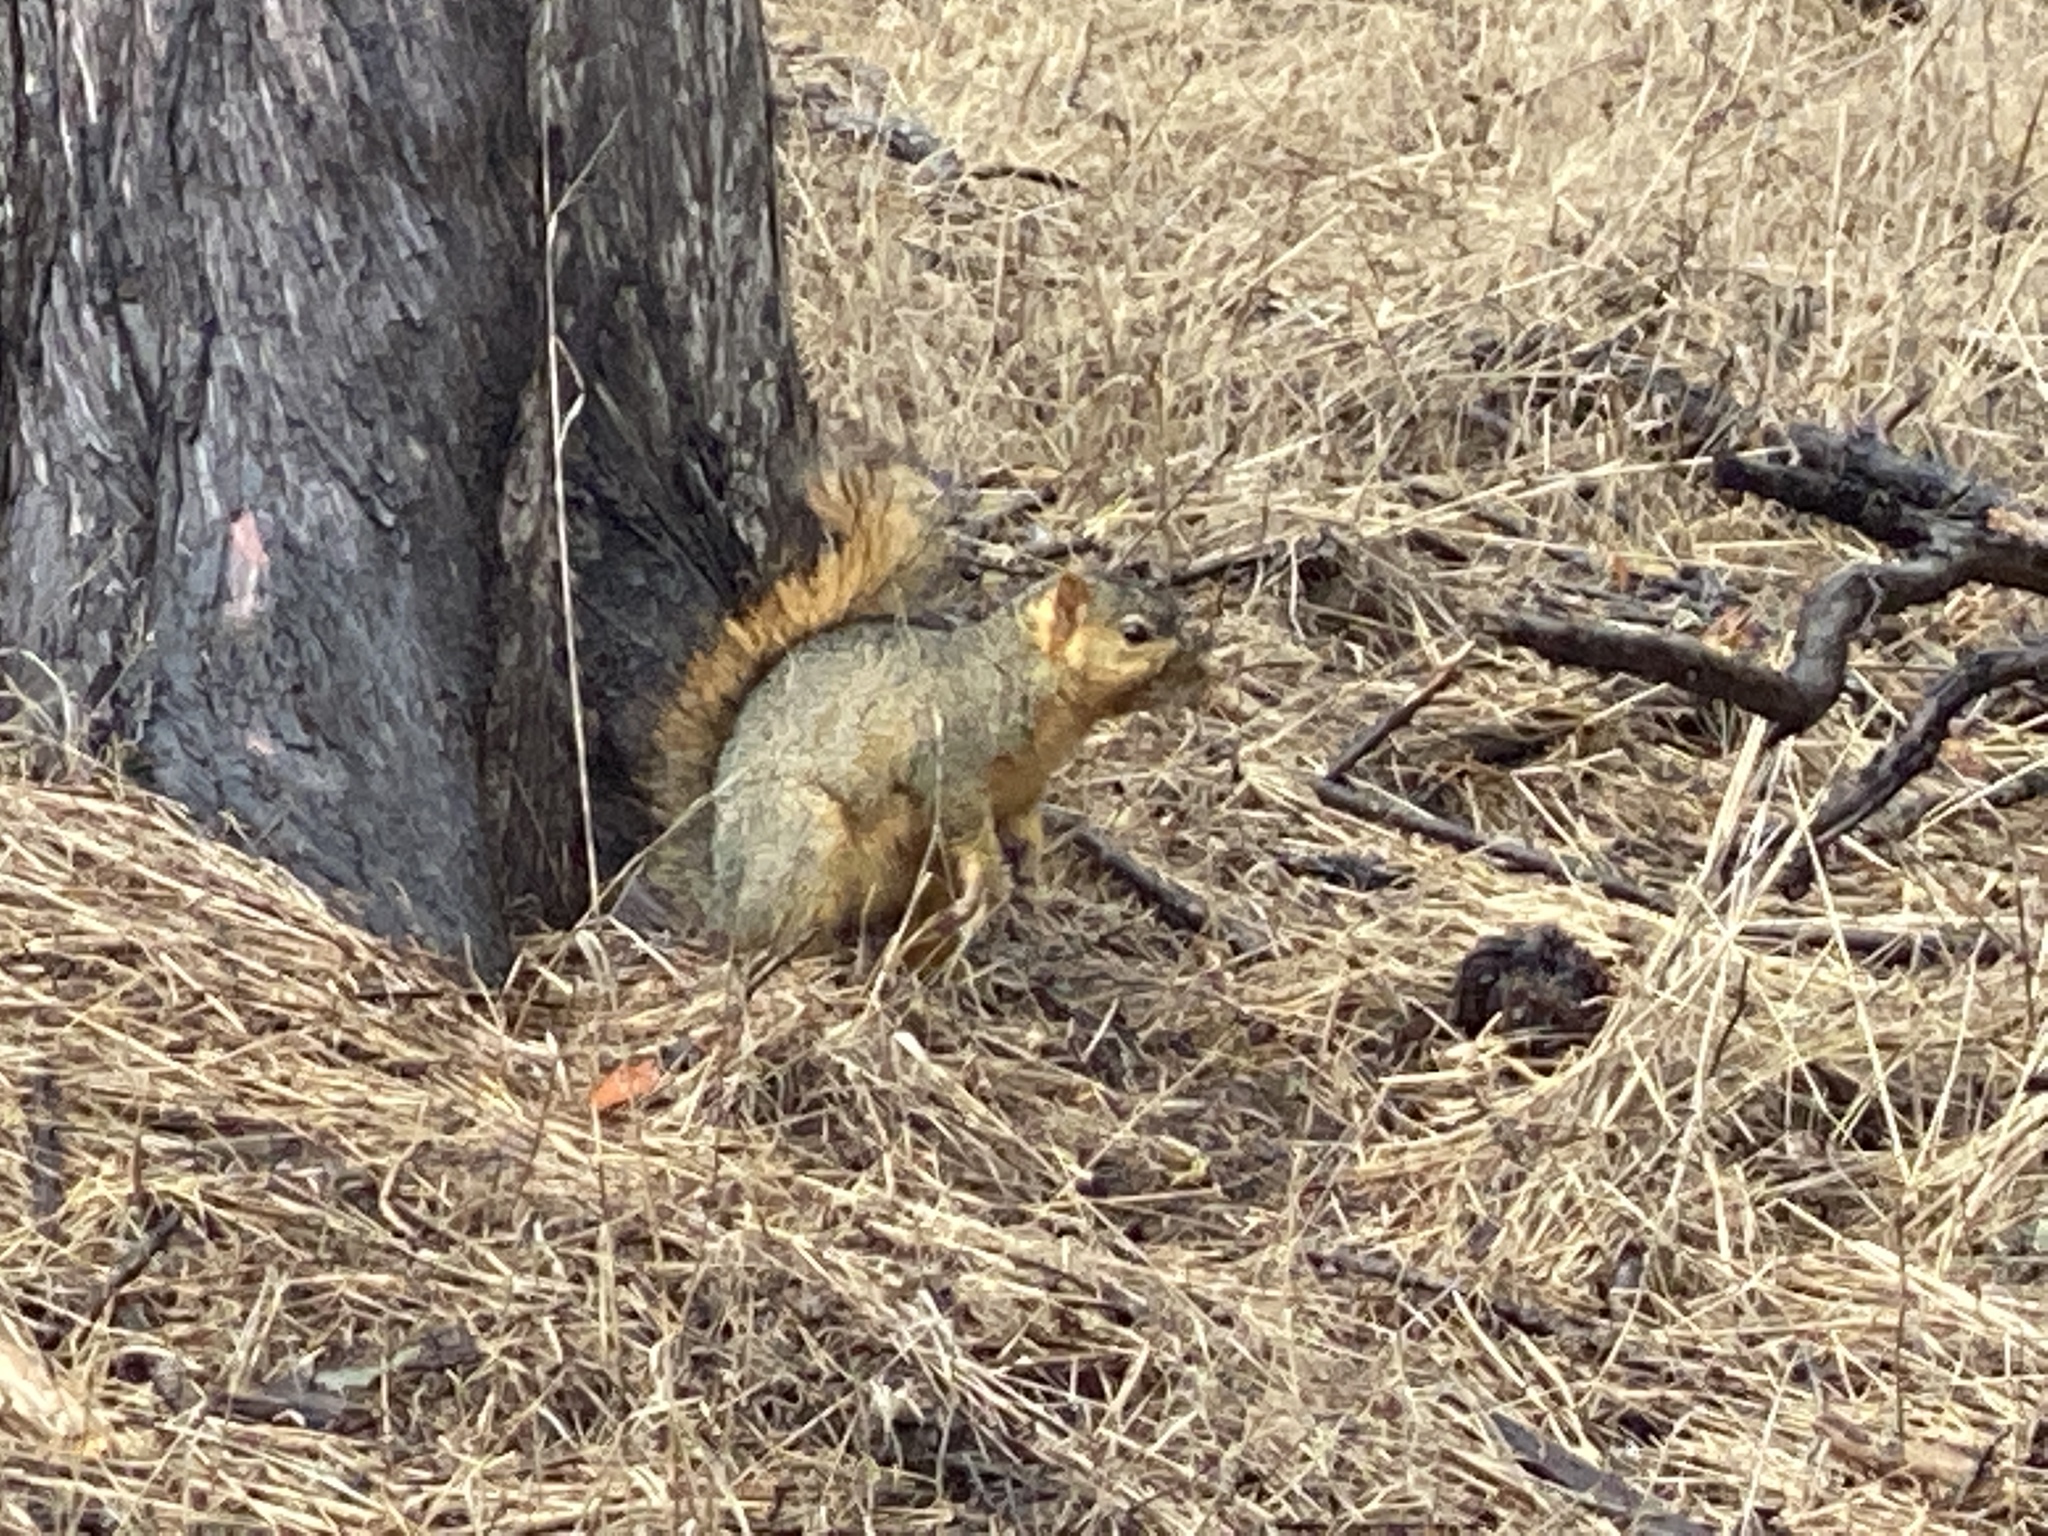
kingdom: Animalia
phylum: Chordata
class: Mammalia
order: Rodentia
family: Sciuridae
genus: Sciurus
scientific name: Sciurus niger
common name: Fox squirrel
